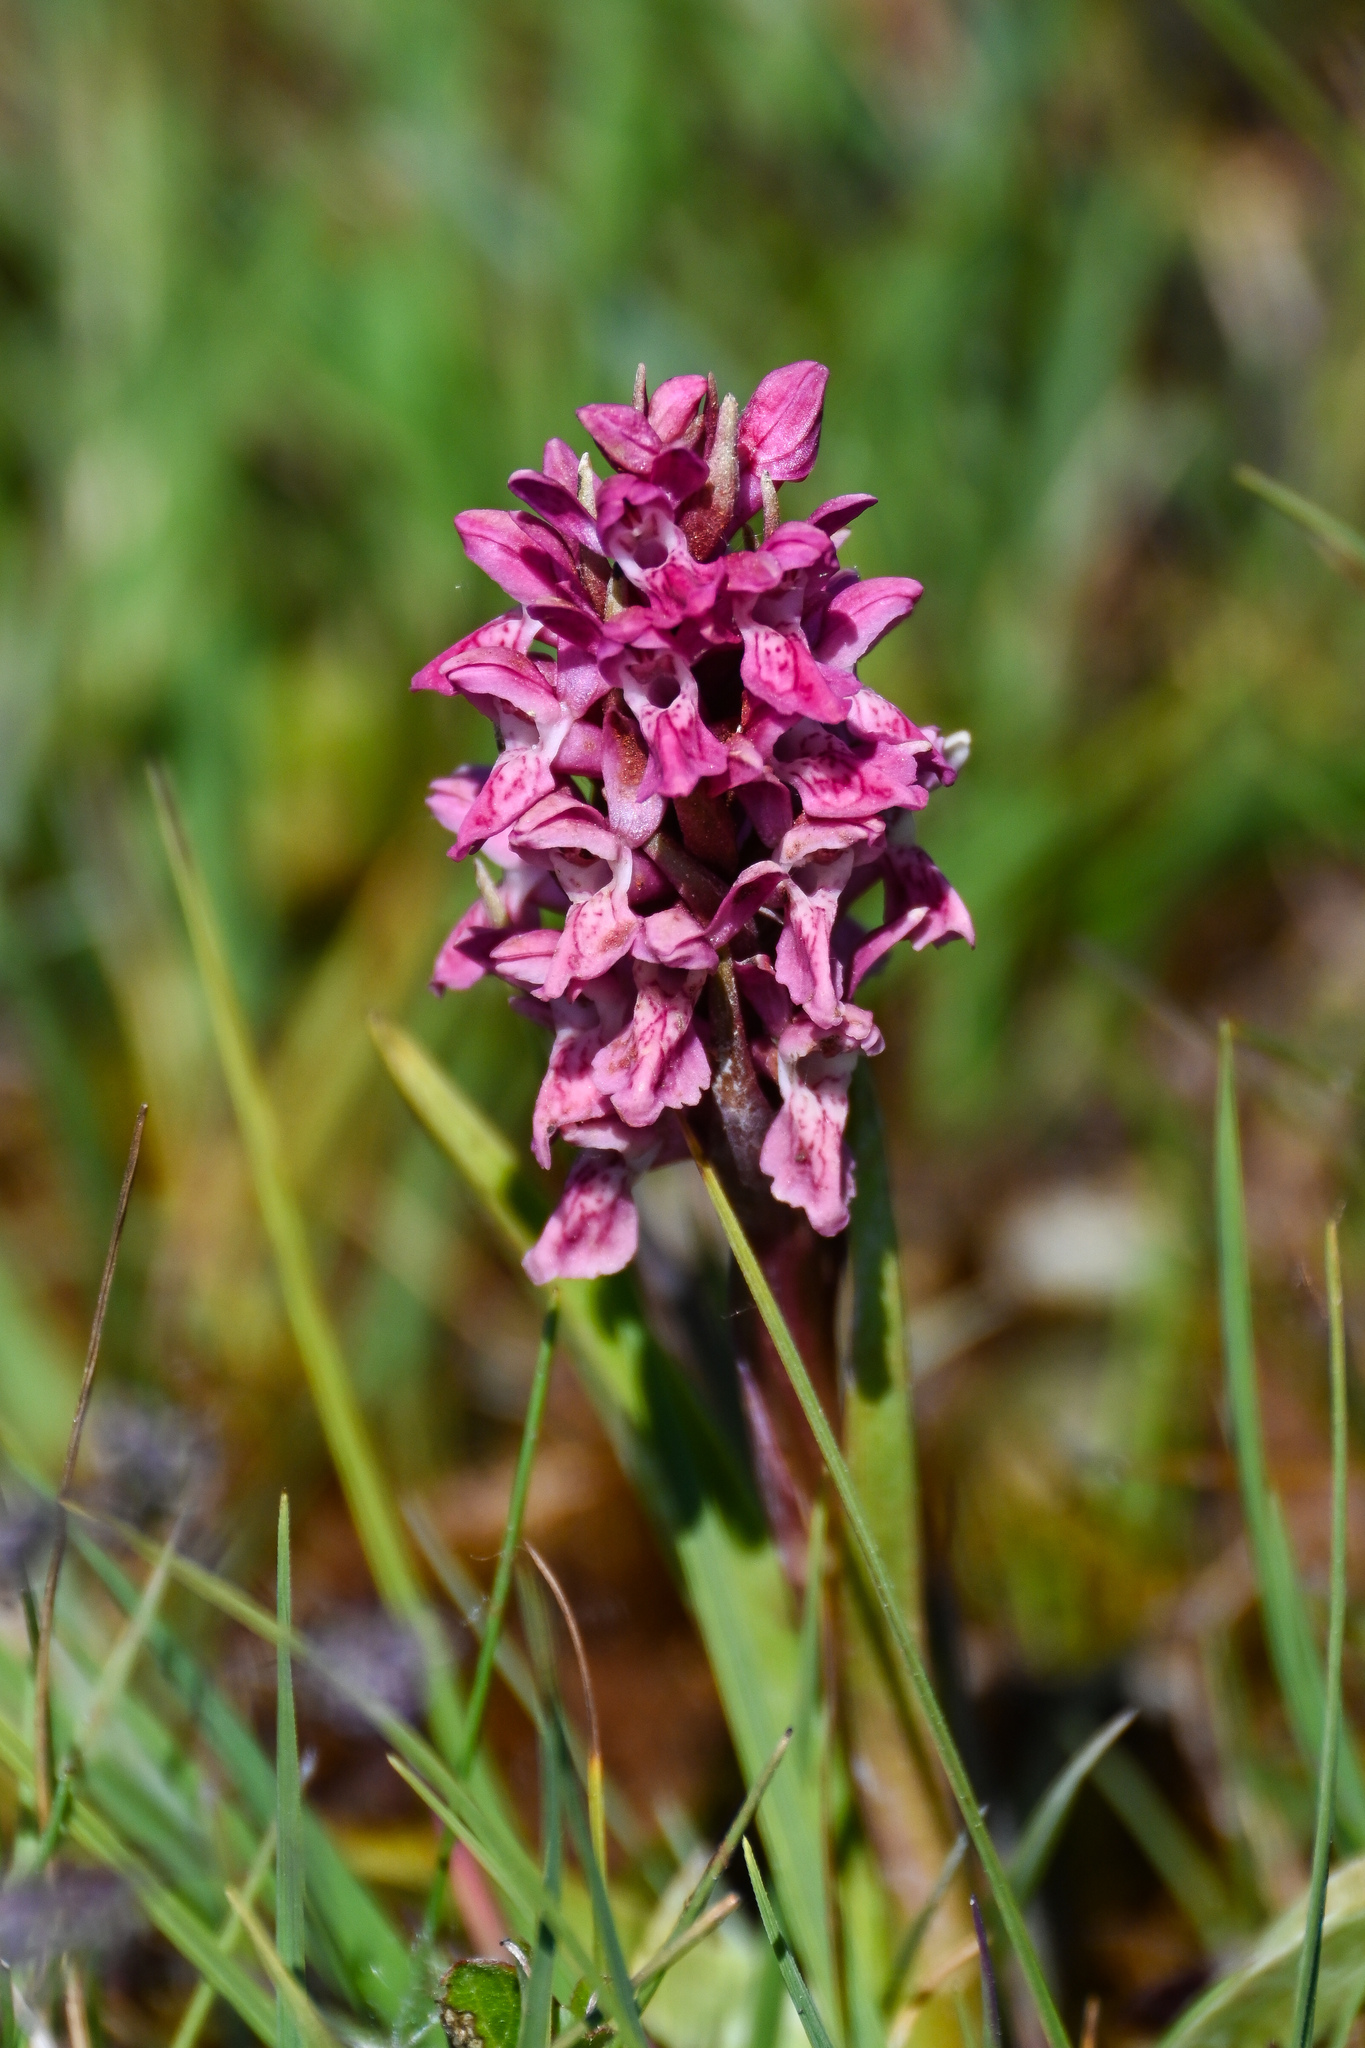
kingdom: Plantae
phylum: Tracheophyta
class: Liliopsida
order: Asparagales
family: Orchidaceae
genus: Dactylorhiza
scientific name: Dactylorhiza incarnata
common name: Early marsh-orchid
